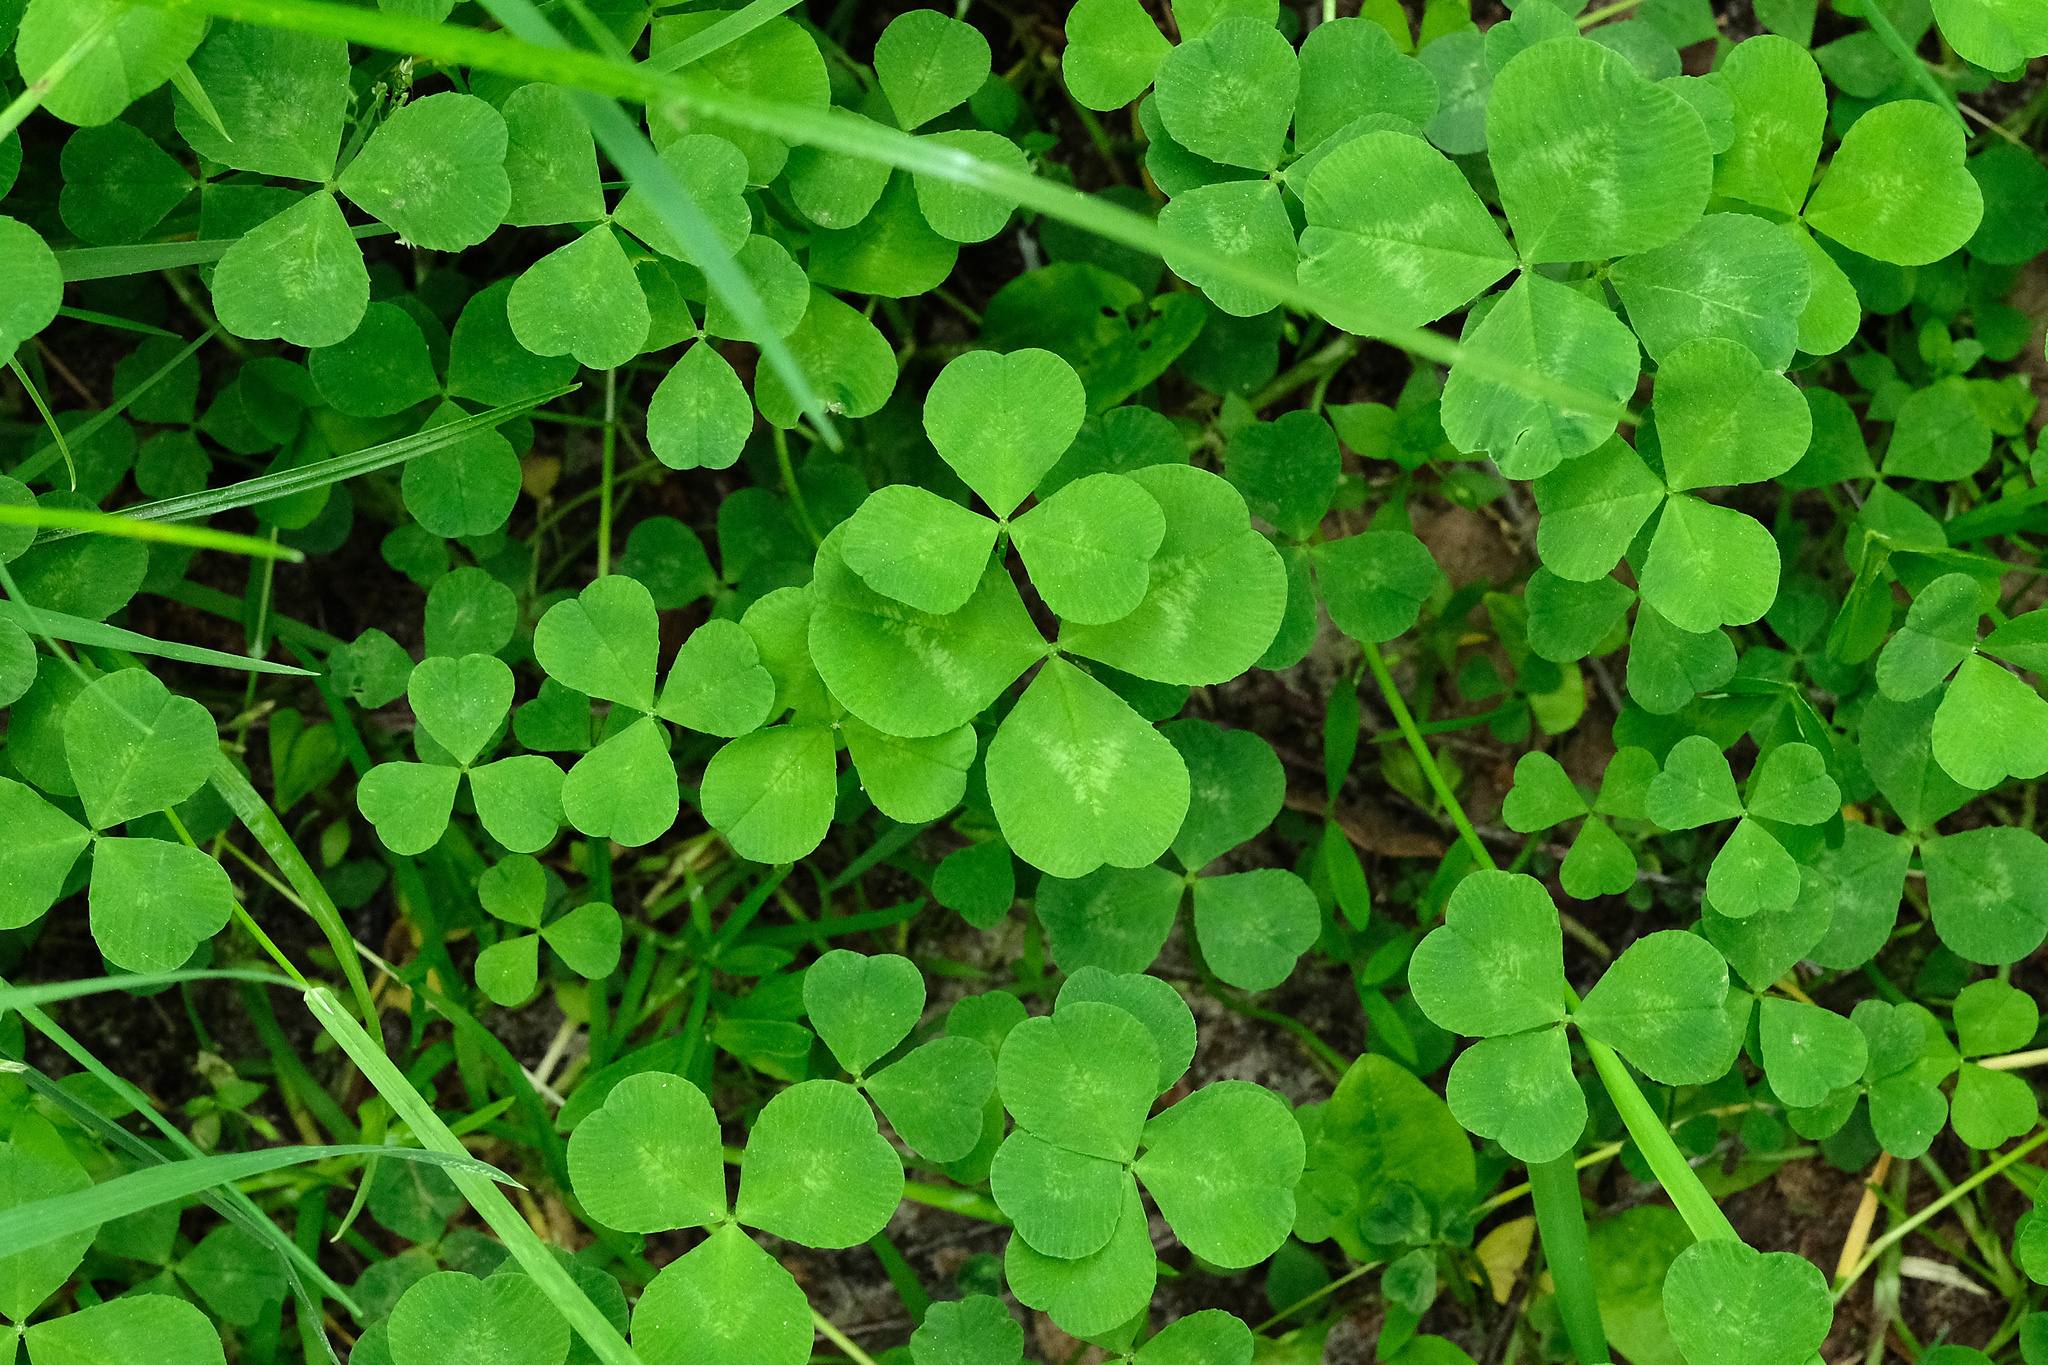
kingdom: Plantae
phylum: Tracheophyta
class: Magnoliopsida
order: Fabales
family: Fabaceae
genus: Trifolium
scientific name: Trifolium repens
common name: White clover
